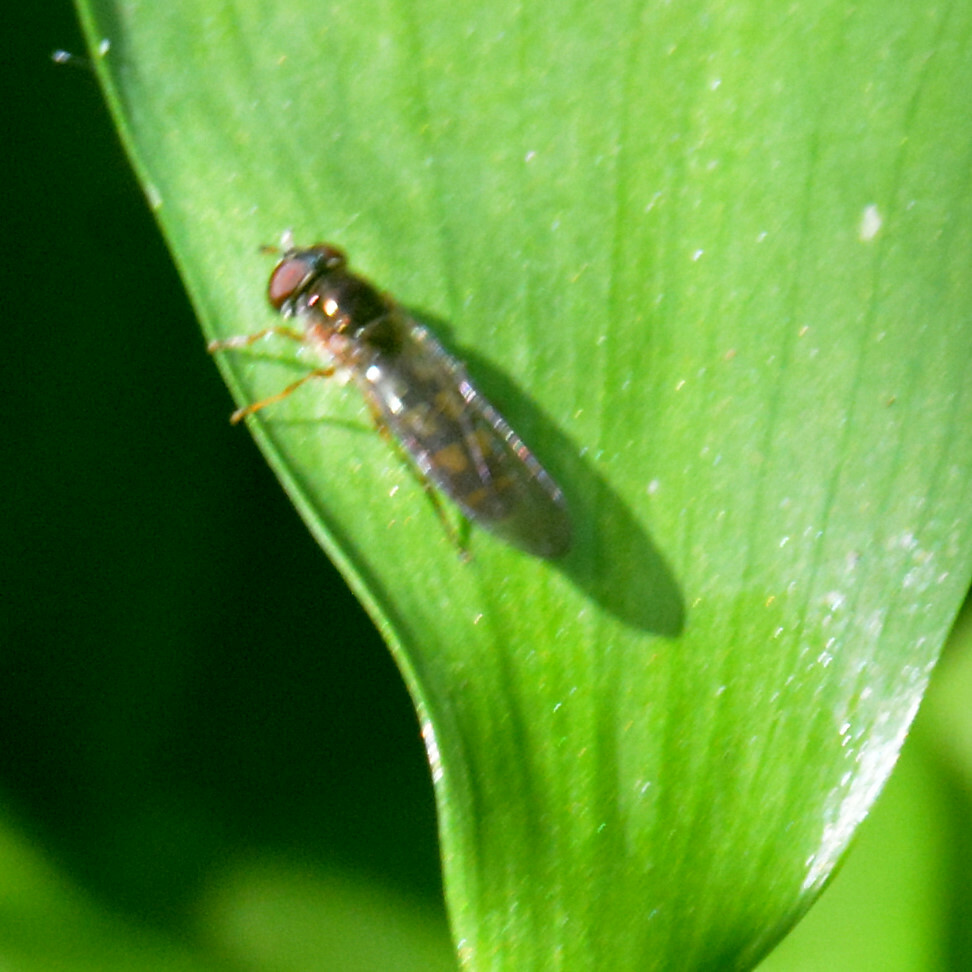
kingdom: Animalia
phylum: Arthropoda
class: Insecta
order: Diptera
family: Syrphidae
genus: Melanostoma
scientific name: Melanostoma
